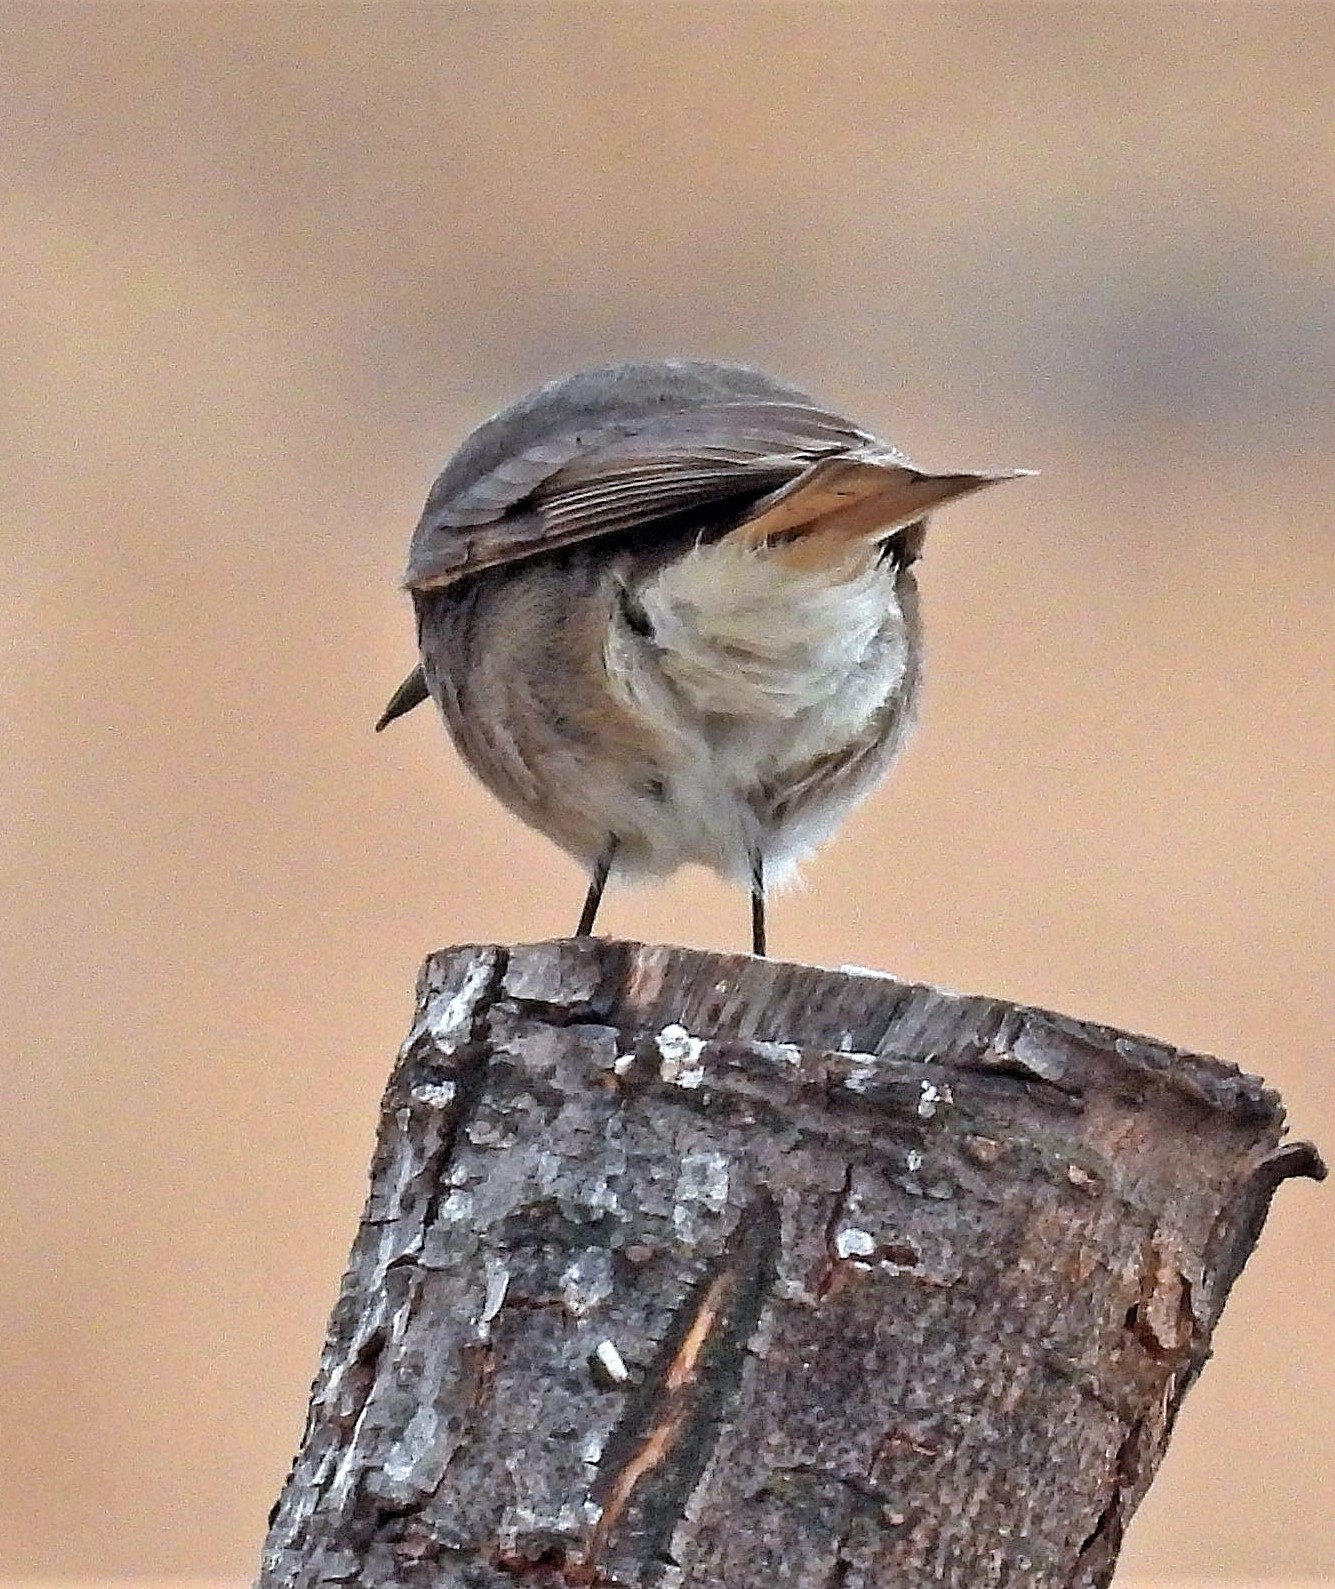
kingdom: Animalia
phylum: Chordata
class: Aves
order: Passeriformes
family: Tyrannidae
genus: Polioxolmis
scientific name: Polioxolmis rufipennis
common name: Rufous-webbed bush-tyrant
